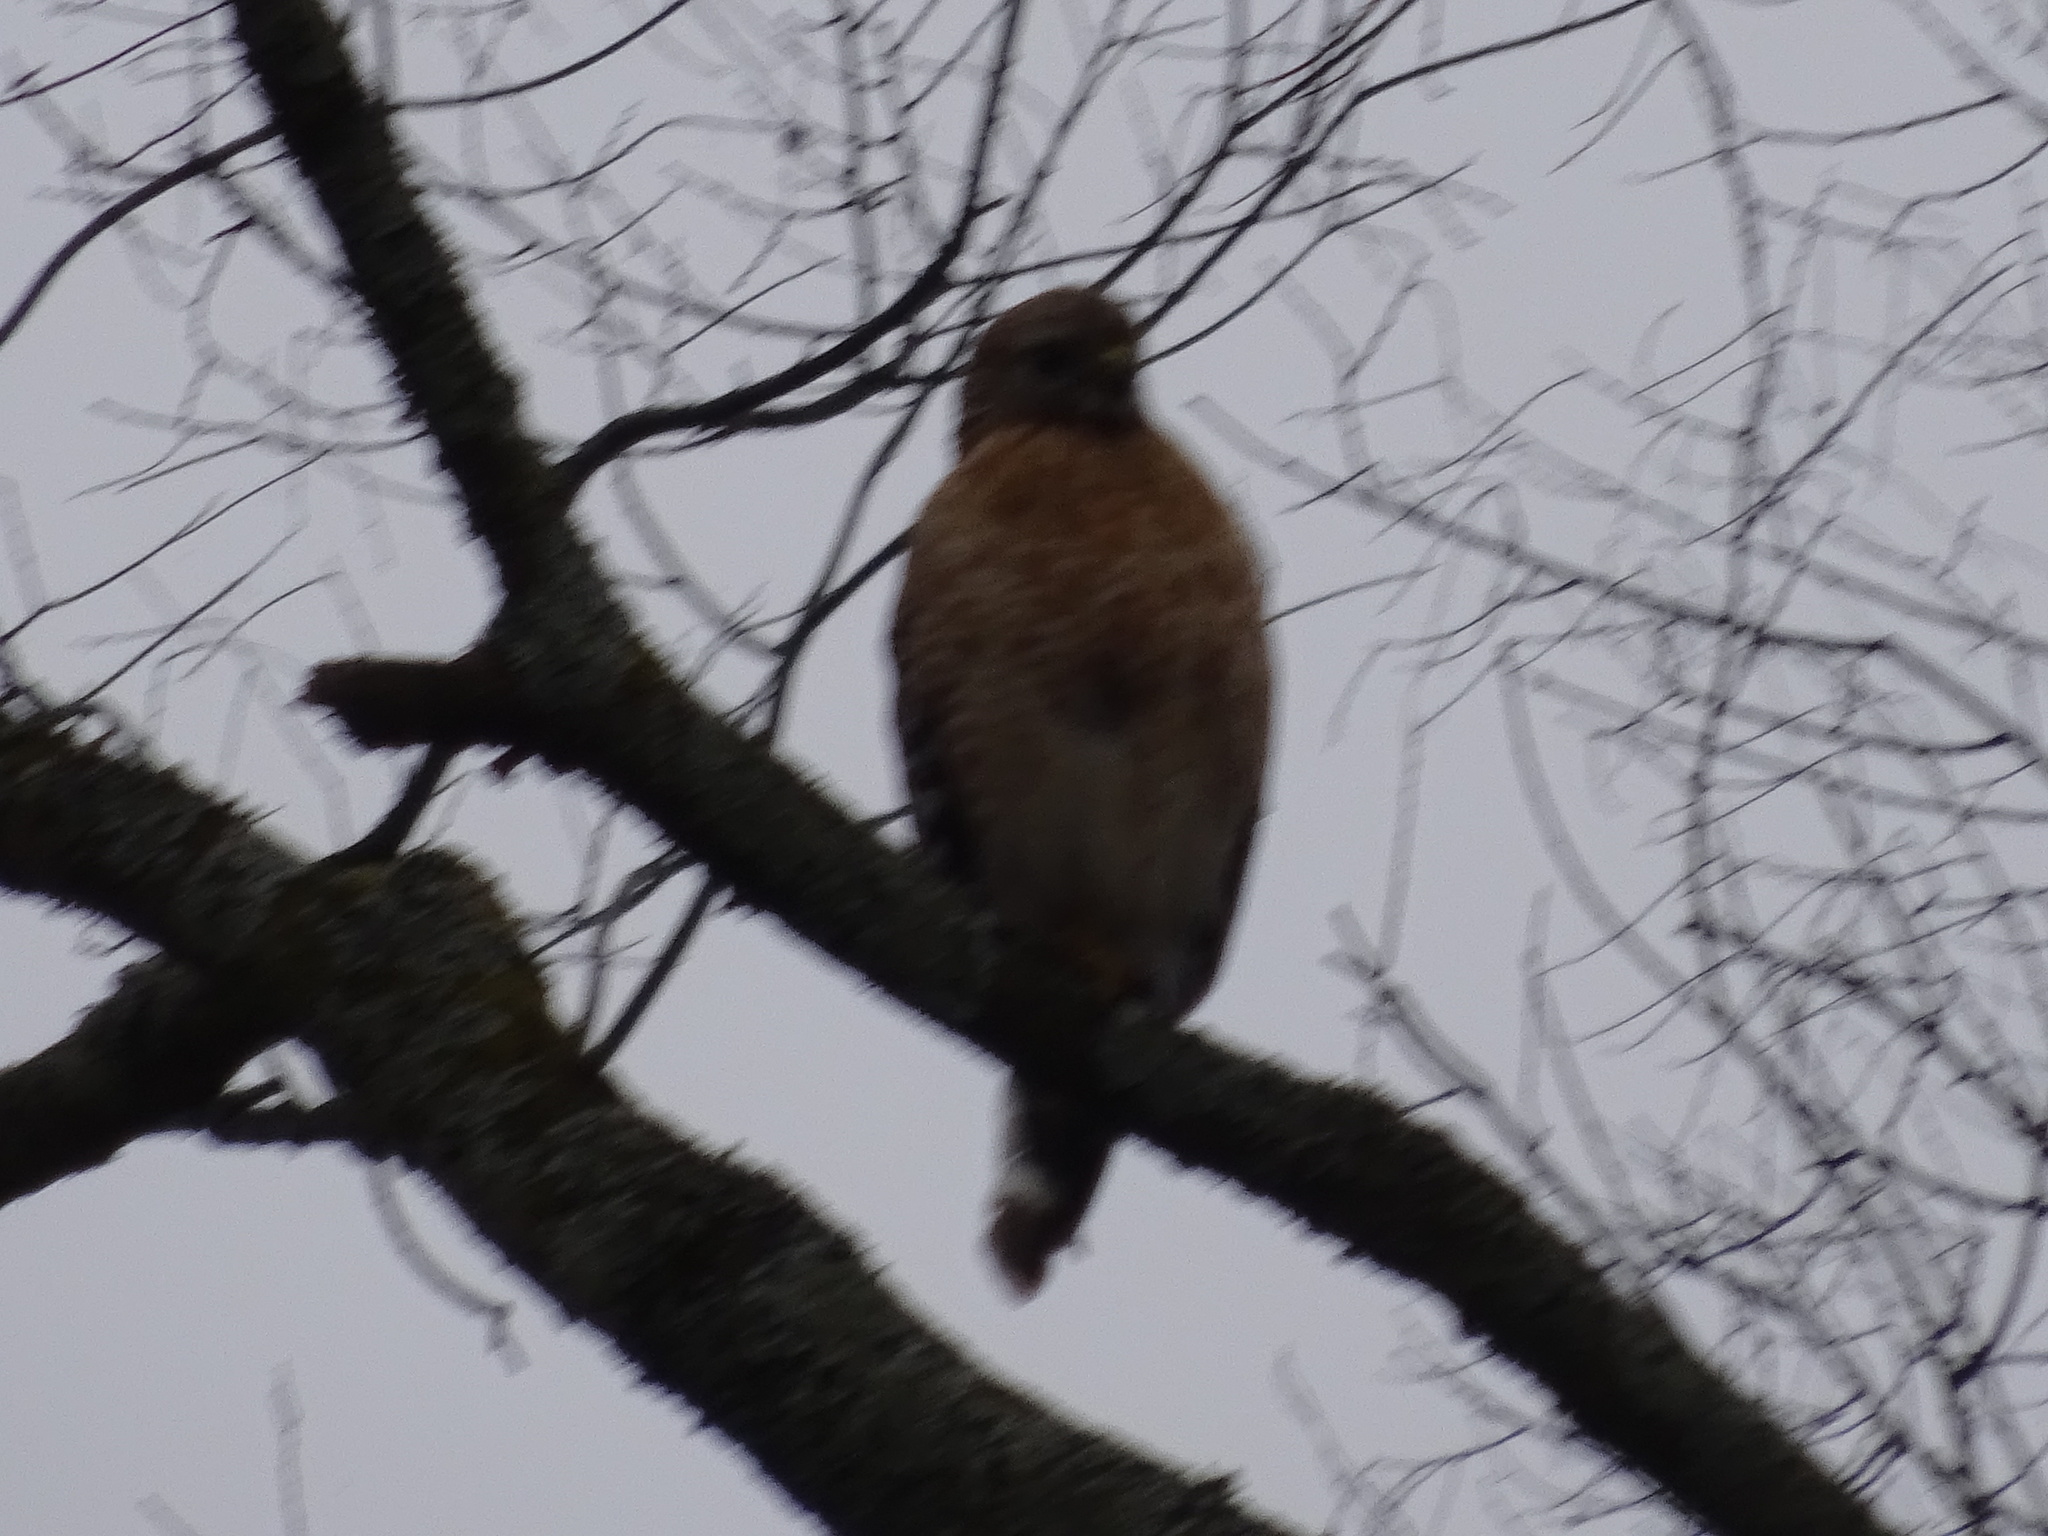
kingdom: Animalia
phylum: Chordata
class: Aves
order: Accipitriformes
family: Accipitridae
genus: Buteo
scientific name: Buteo lineatus
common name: Red-shouldered hawk
